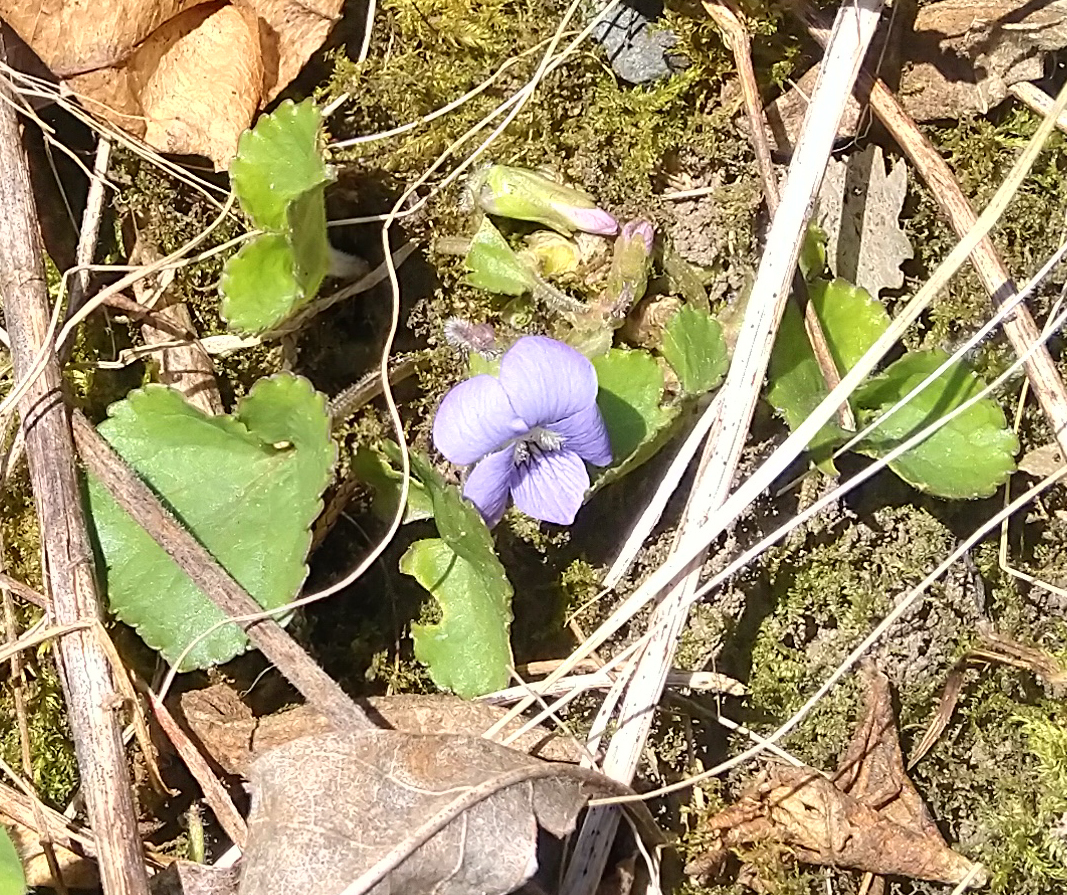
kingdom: Plantae
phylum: Tracheophyta
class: Magnoliopsida
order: Malpighiales
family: Violaceae
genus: Viola
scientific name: Viola sororia
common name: Dooryard violet
